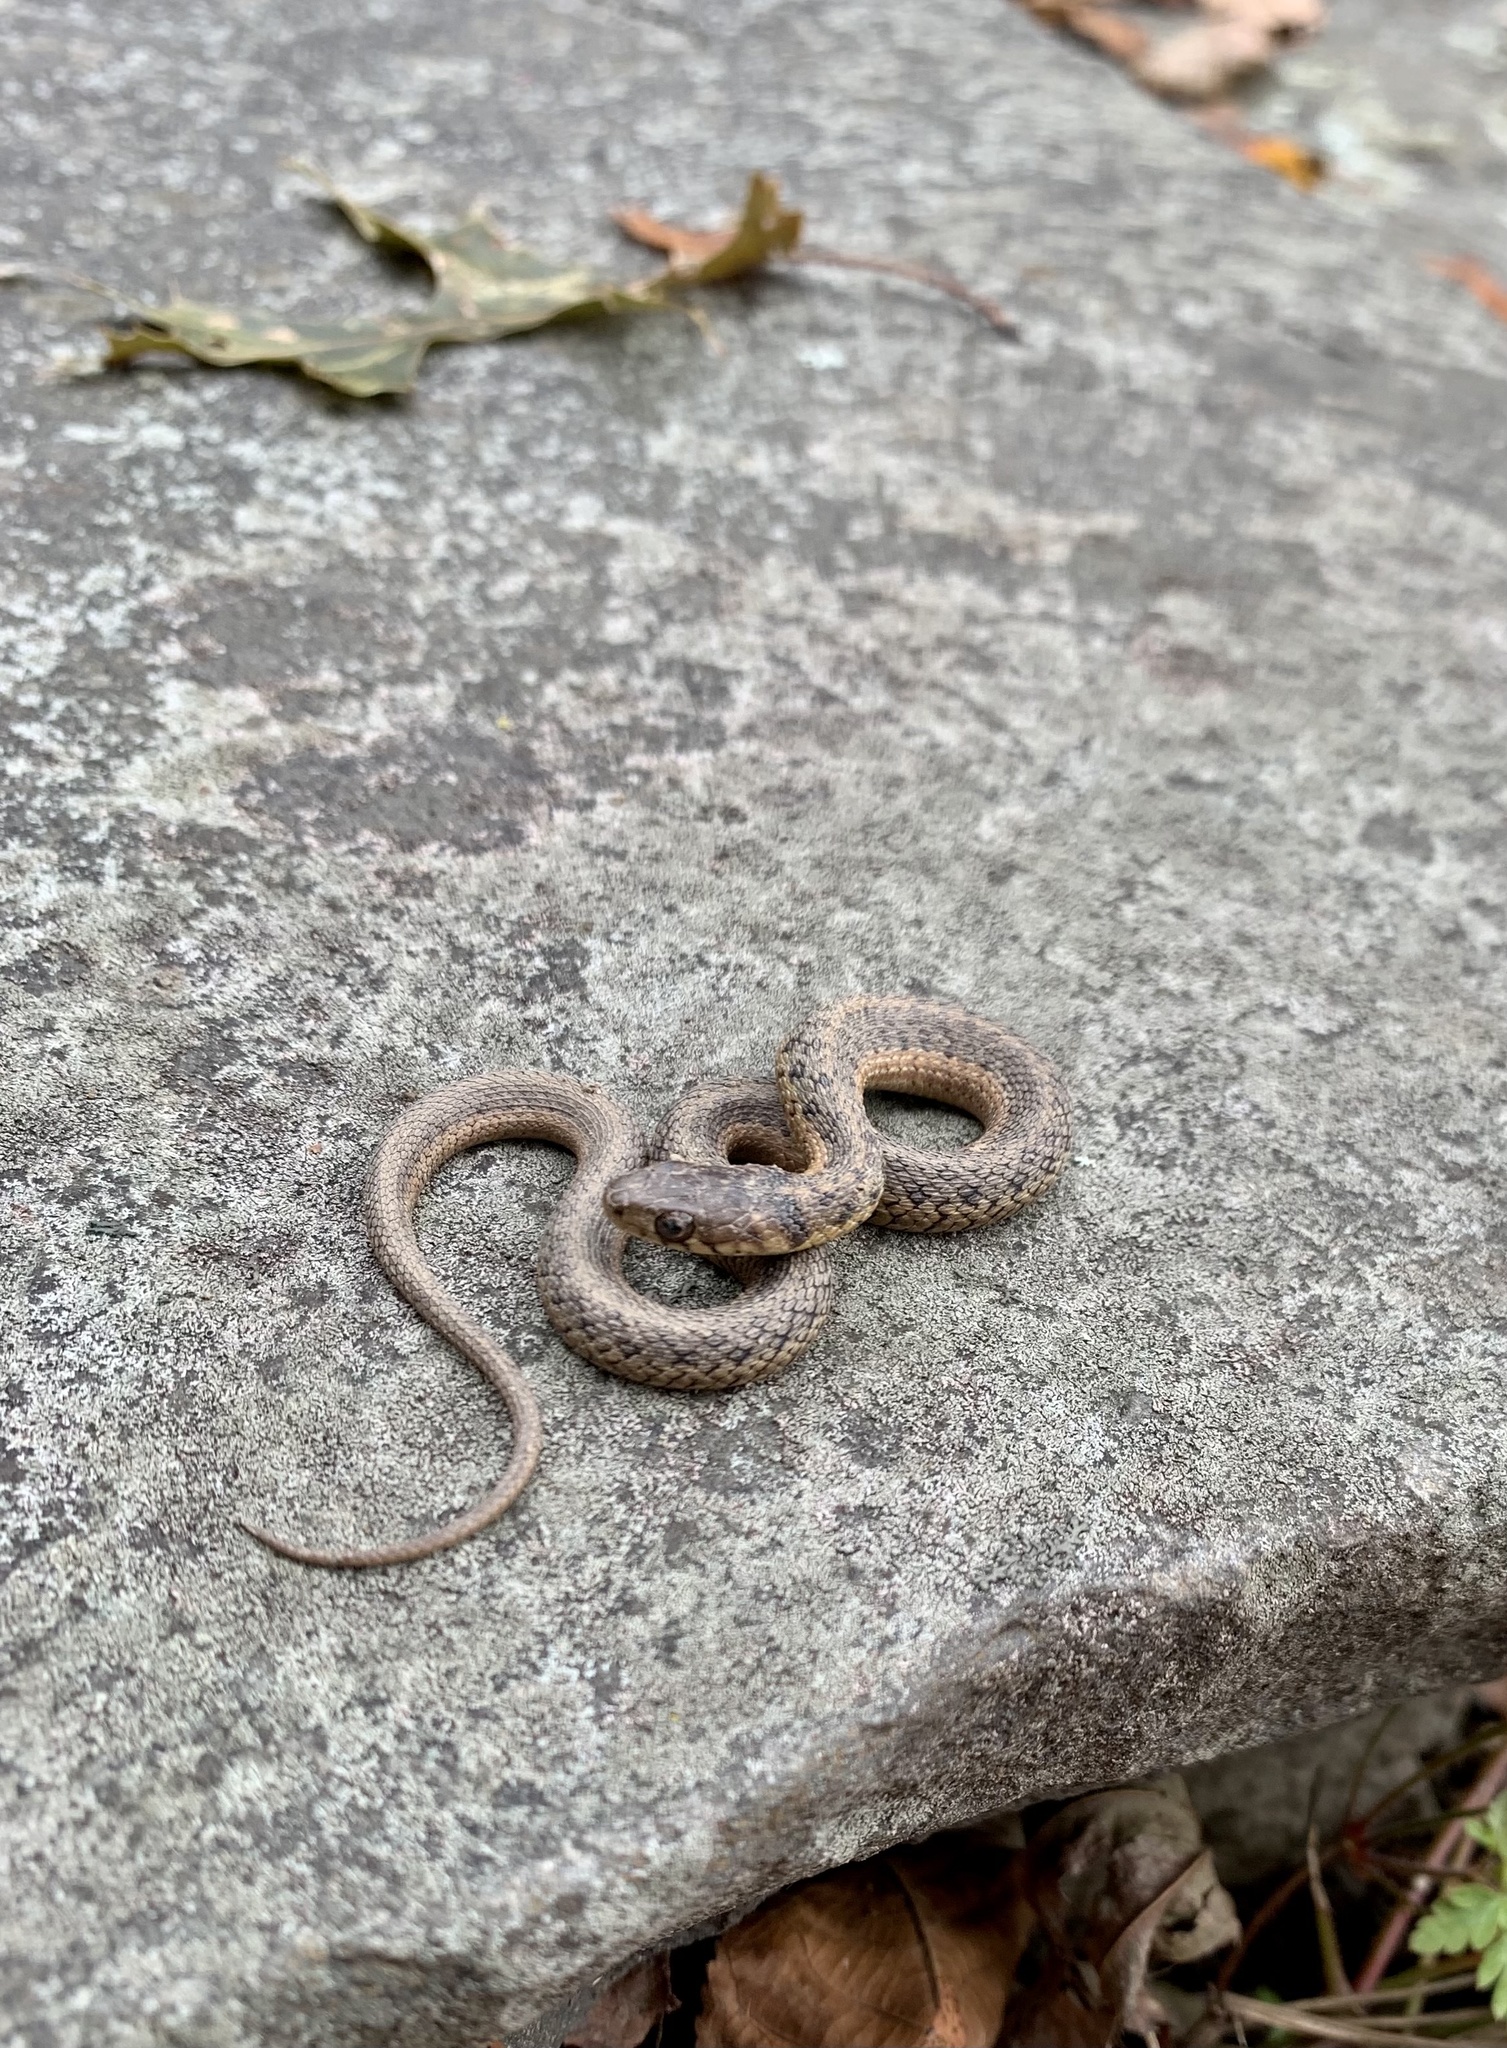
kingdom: Animalia
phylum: Chordata
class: Squamata
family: Colubridae
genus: Thamnophis
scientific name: Thamnophis sirtalis
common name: Common garter snake
